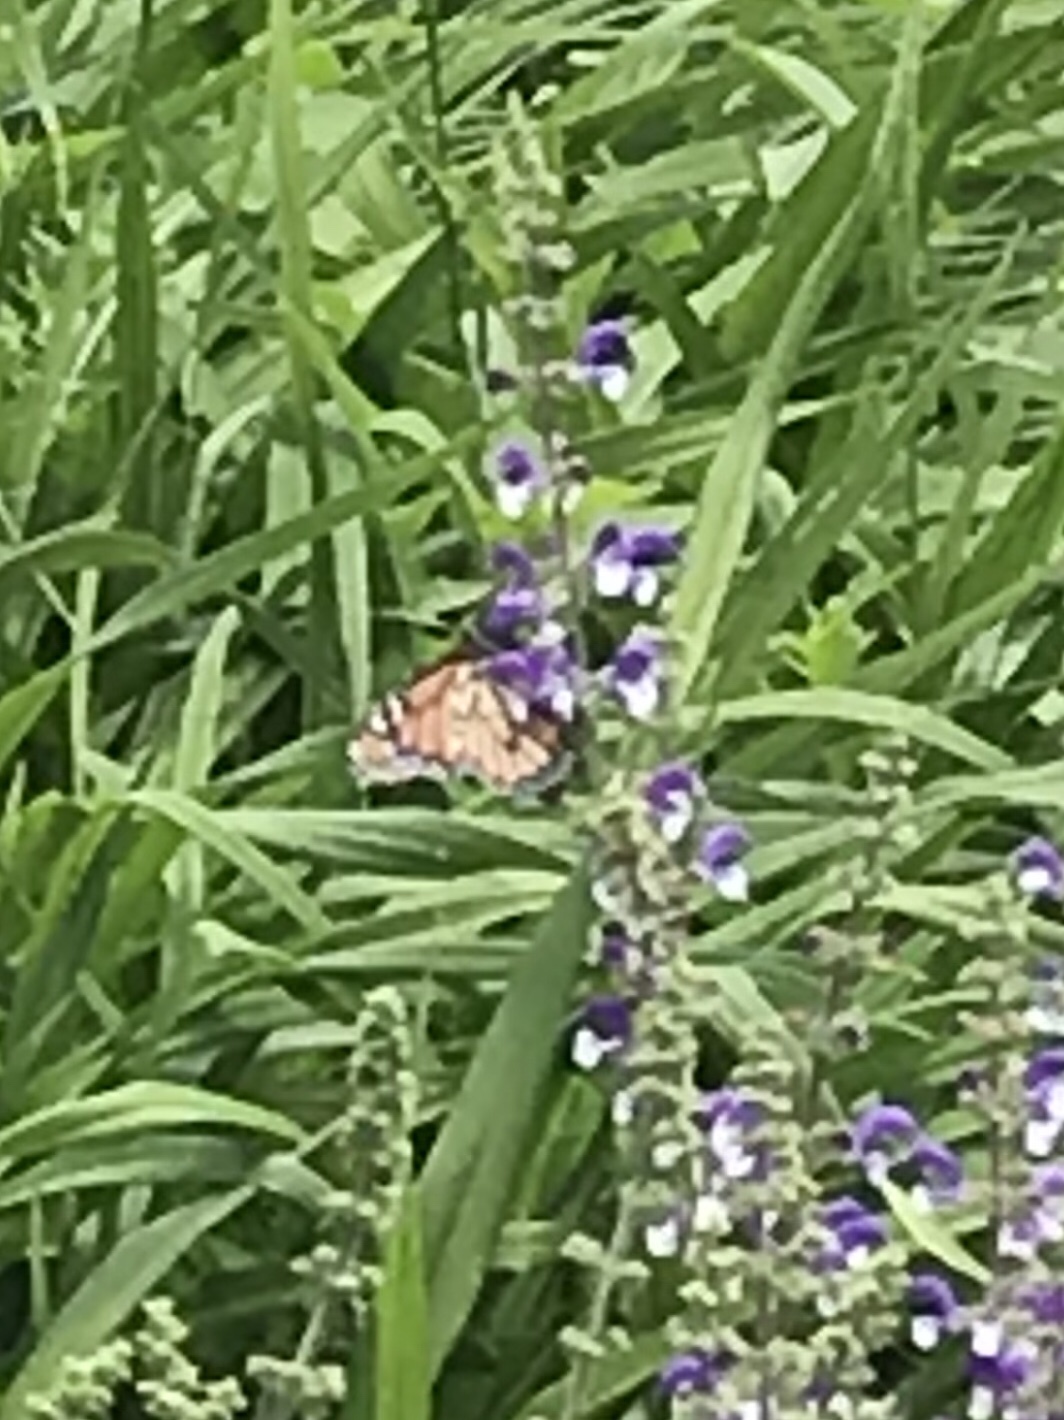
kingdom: Animalia
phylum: Arthropoda
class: Insecta
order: Lepidoptera
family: Nymphalidae
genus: Danaus
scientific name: Danaus plexippus
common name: Monarch
